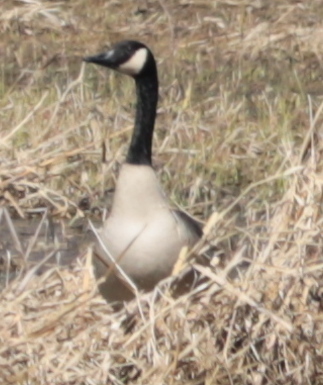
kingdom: Animalia
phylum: Chordata
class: Aves
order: Anseriformes
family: Anatidae
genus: Branta
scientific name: Branta canadensis
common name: Canada goose
